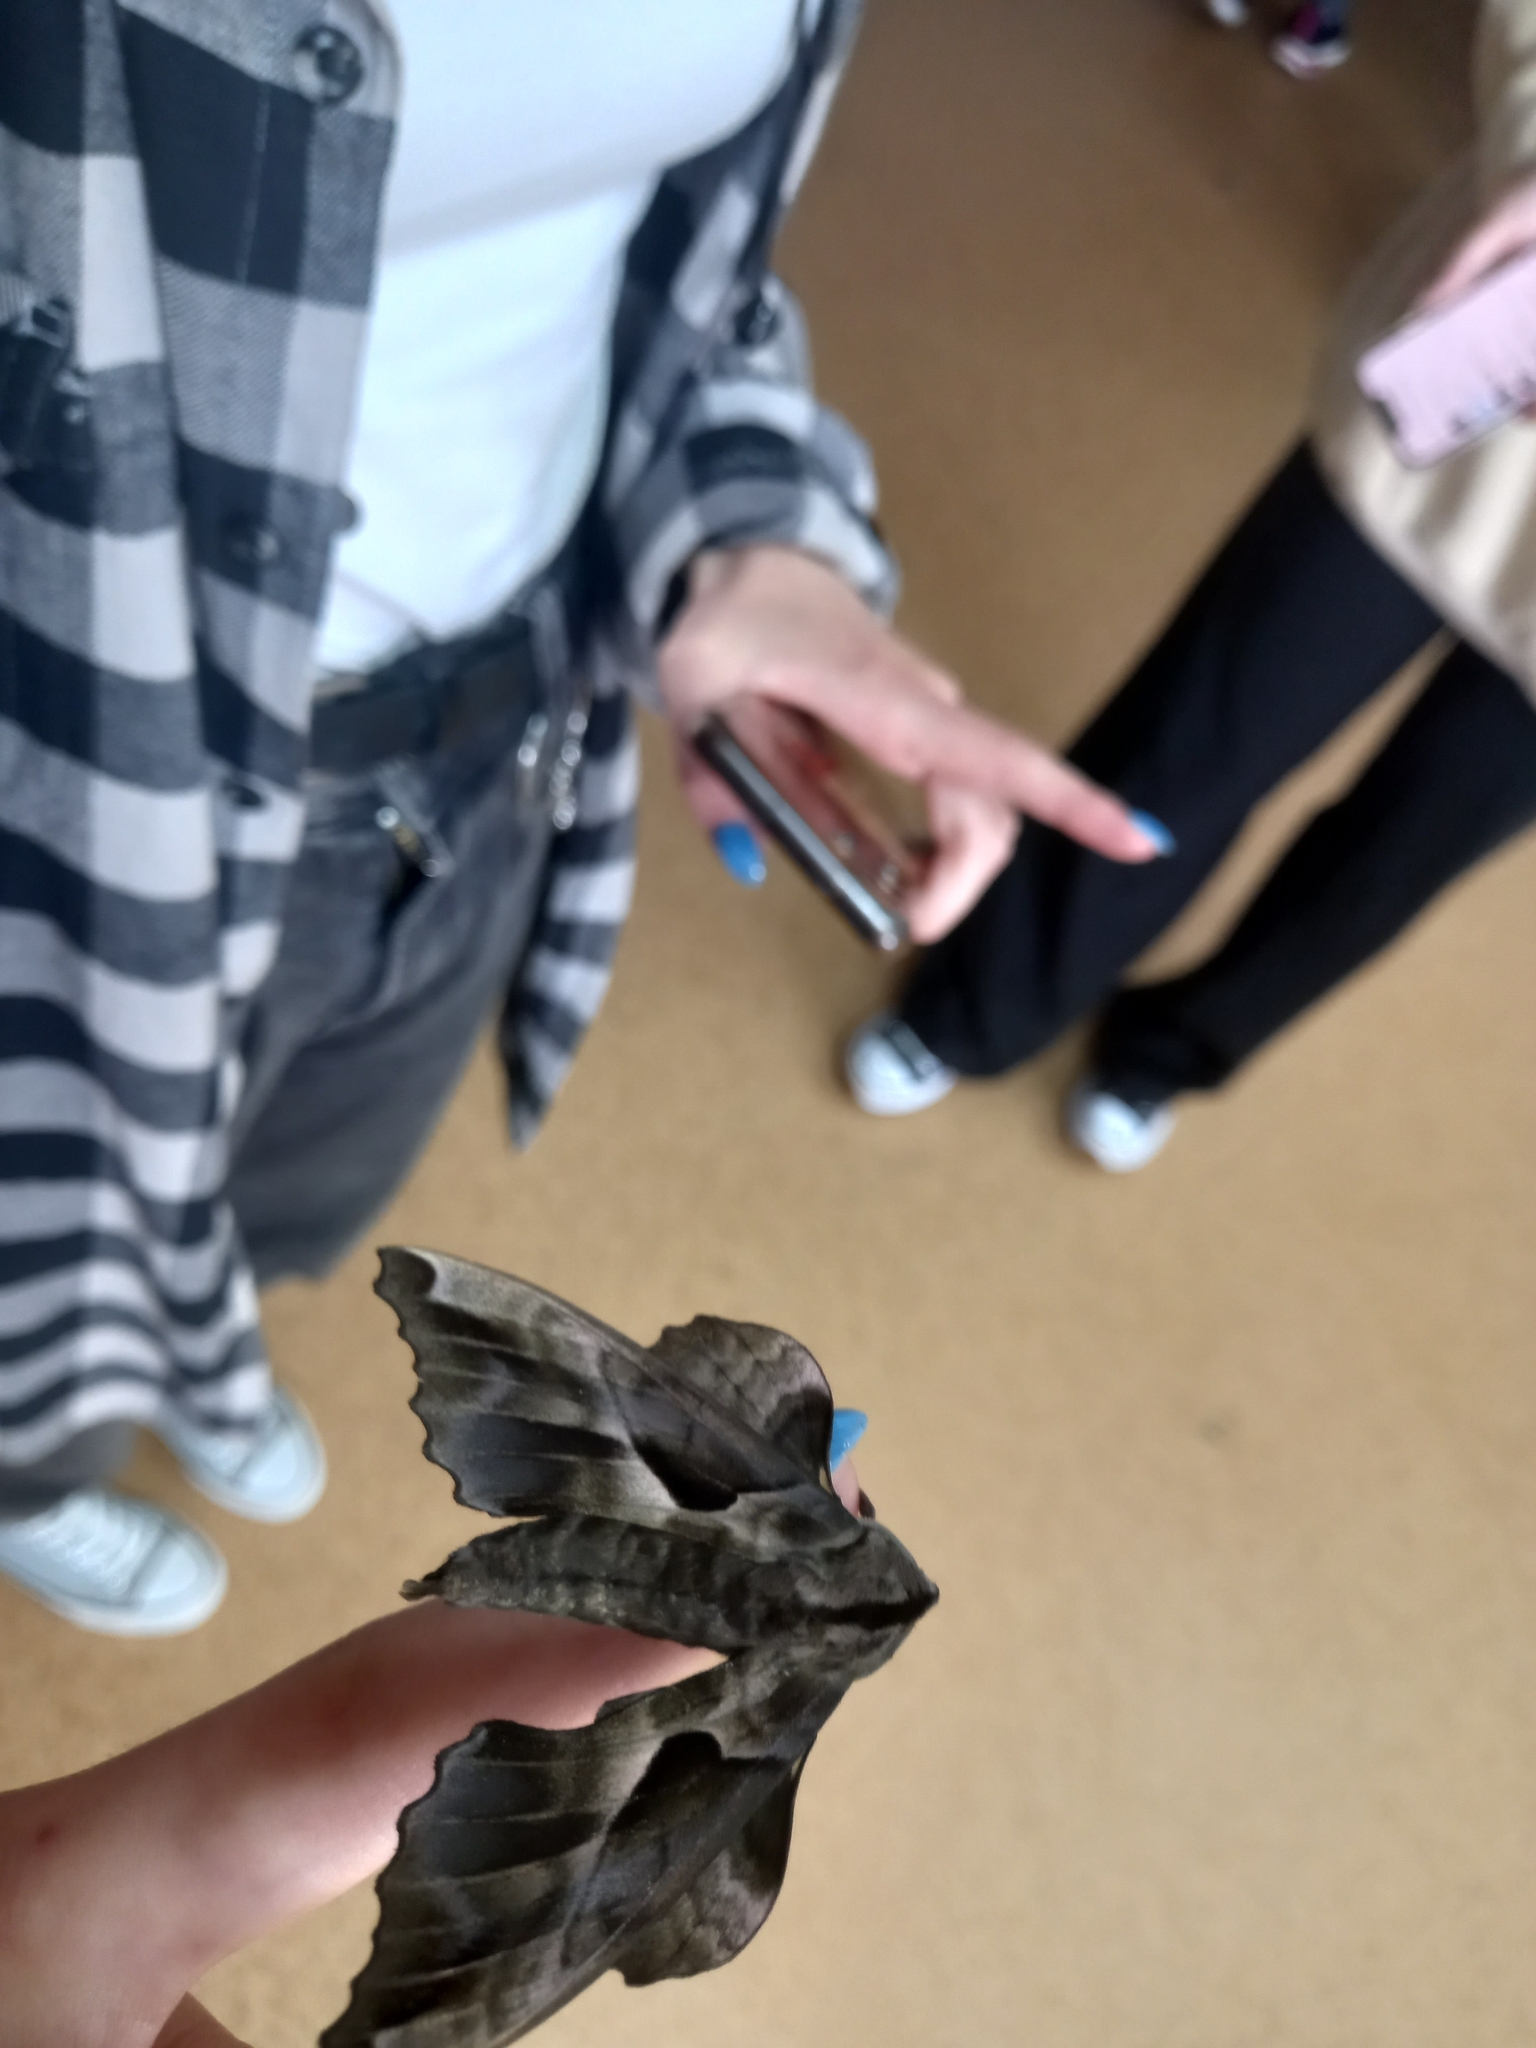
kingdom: Animalia
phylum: Arthropoda
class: Insecta
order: Lepidoptera
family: Sphingidae
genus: Phyllosphingia
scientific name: Phyllosphingia dissimilis
